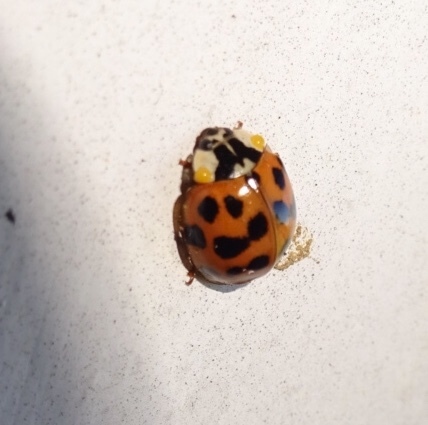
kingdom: Animalia
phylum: Arthropoda
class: Insecta
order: Coleoptera
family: Coccinellidae
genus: Harmonia
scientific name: Harmonia axyridis
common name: Harlequin ladybird
